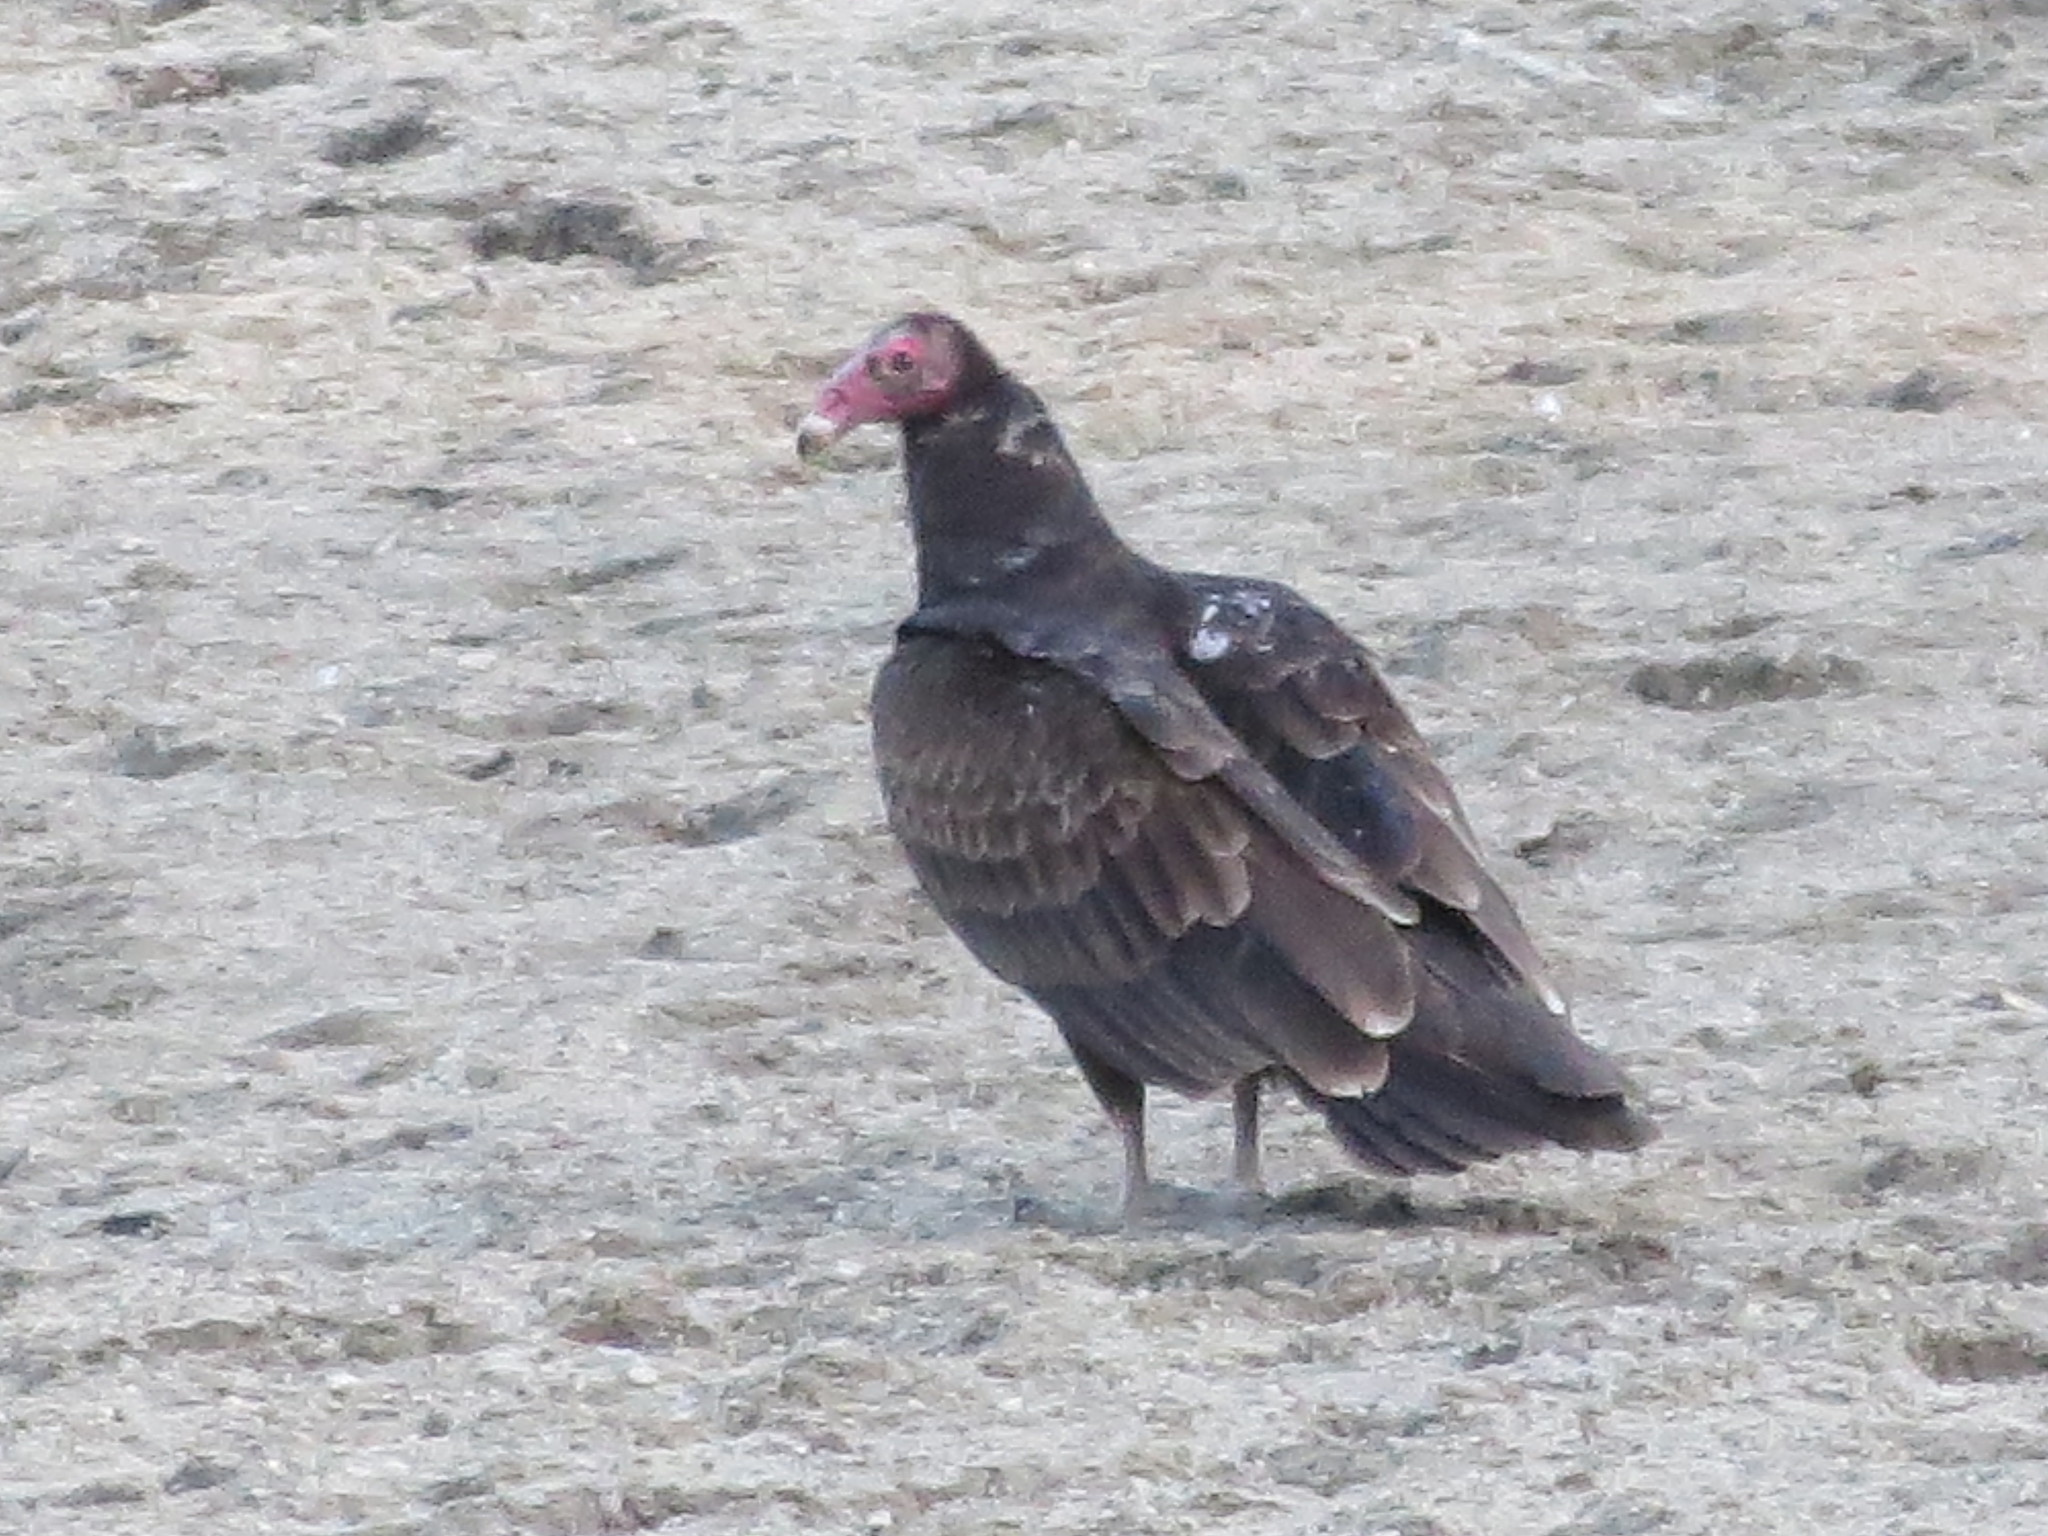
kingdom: Animalia
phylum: Chordata
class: Aves
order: Accipitriformes
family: Cathartidae
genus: Cathartes
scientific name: Cathartes aura
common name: Turkey vulture
